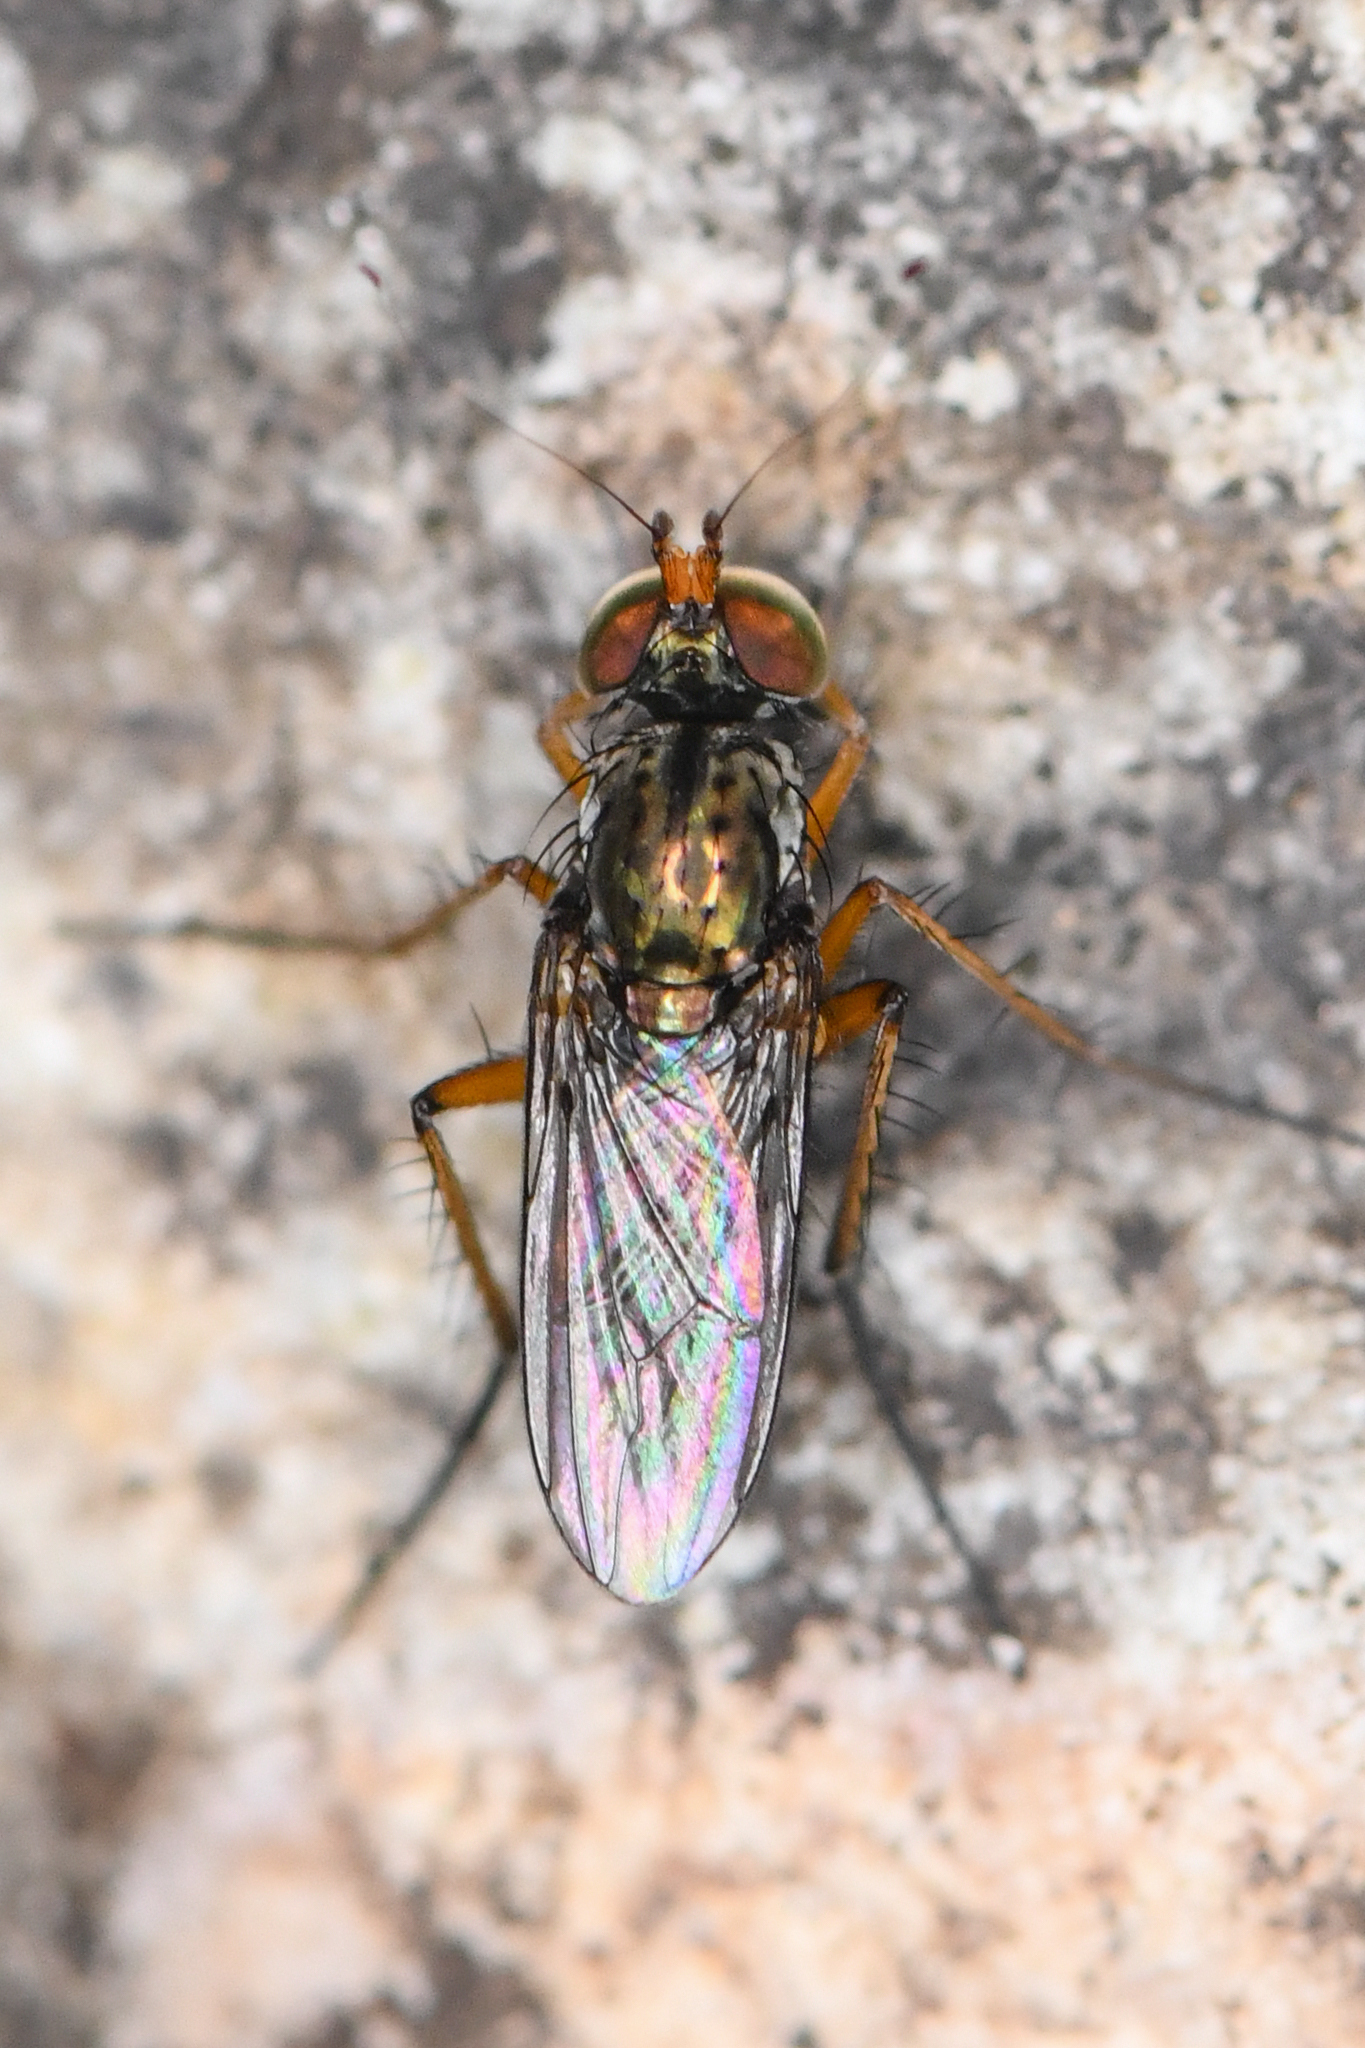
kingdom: Animalia
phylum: Arthropoda
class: Insecta
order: Diptera
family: Dolichopodidae
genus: Tachytrechus
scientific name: Tachytrechus sanus
